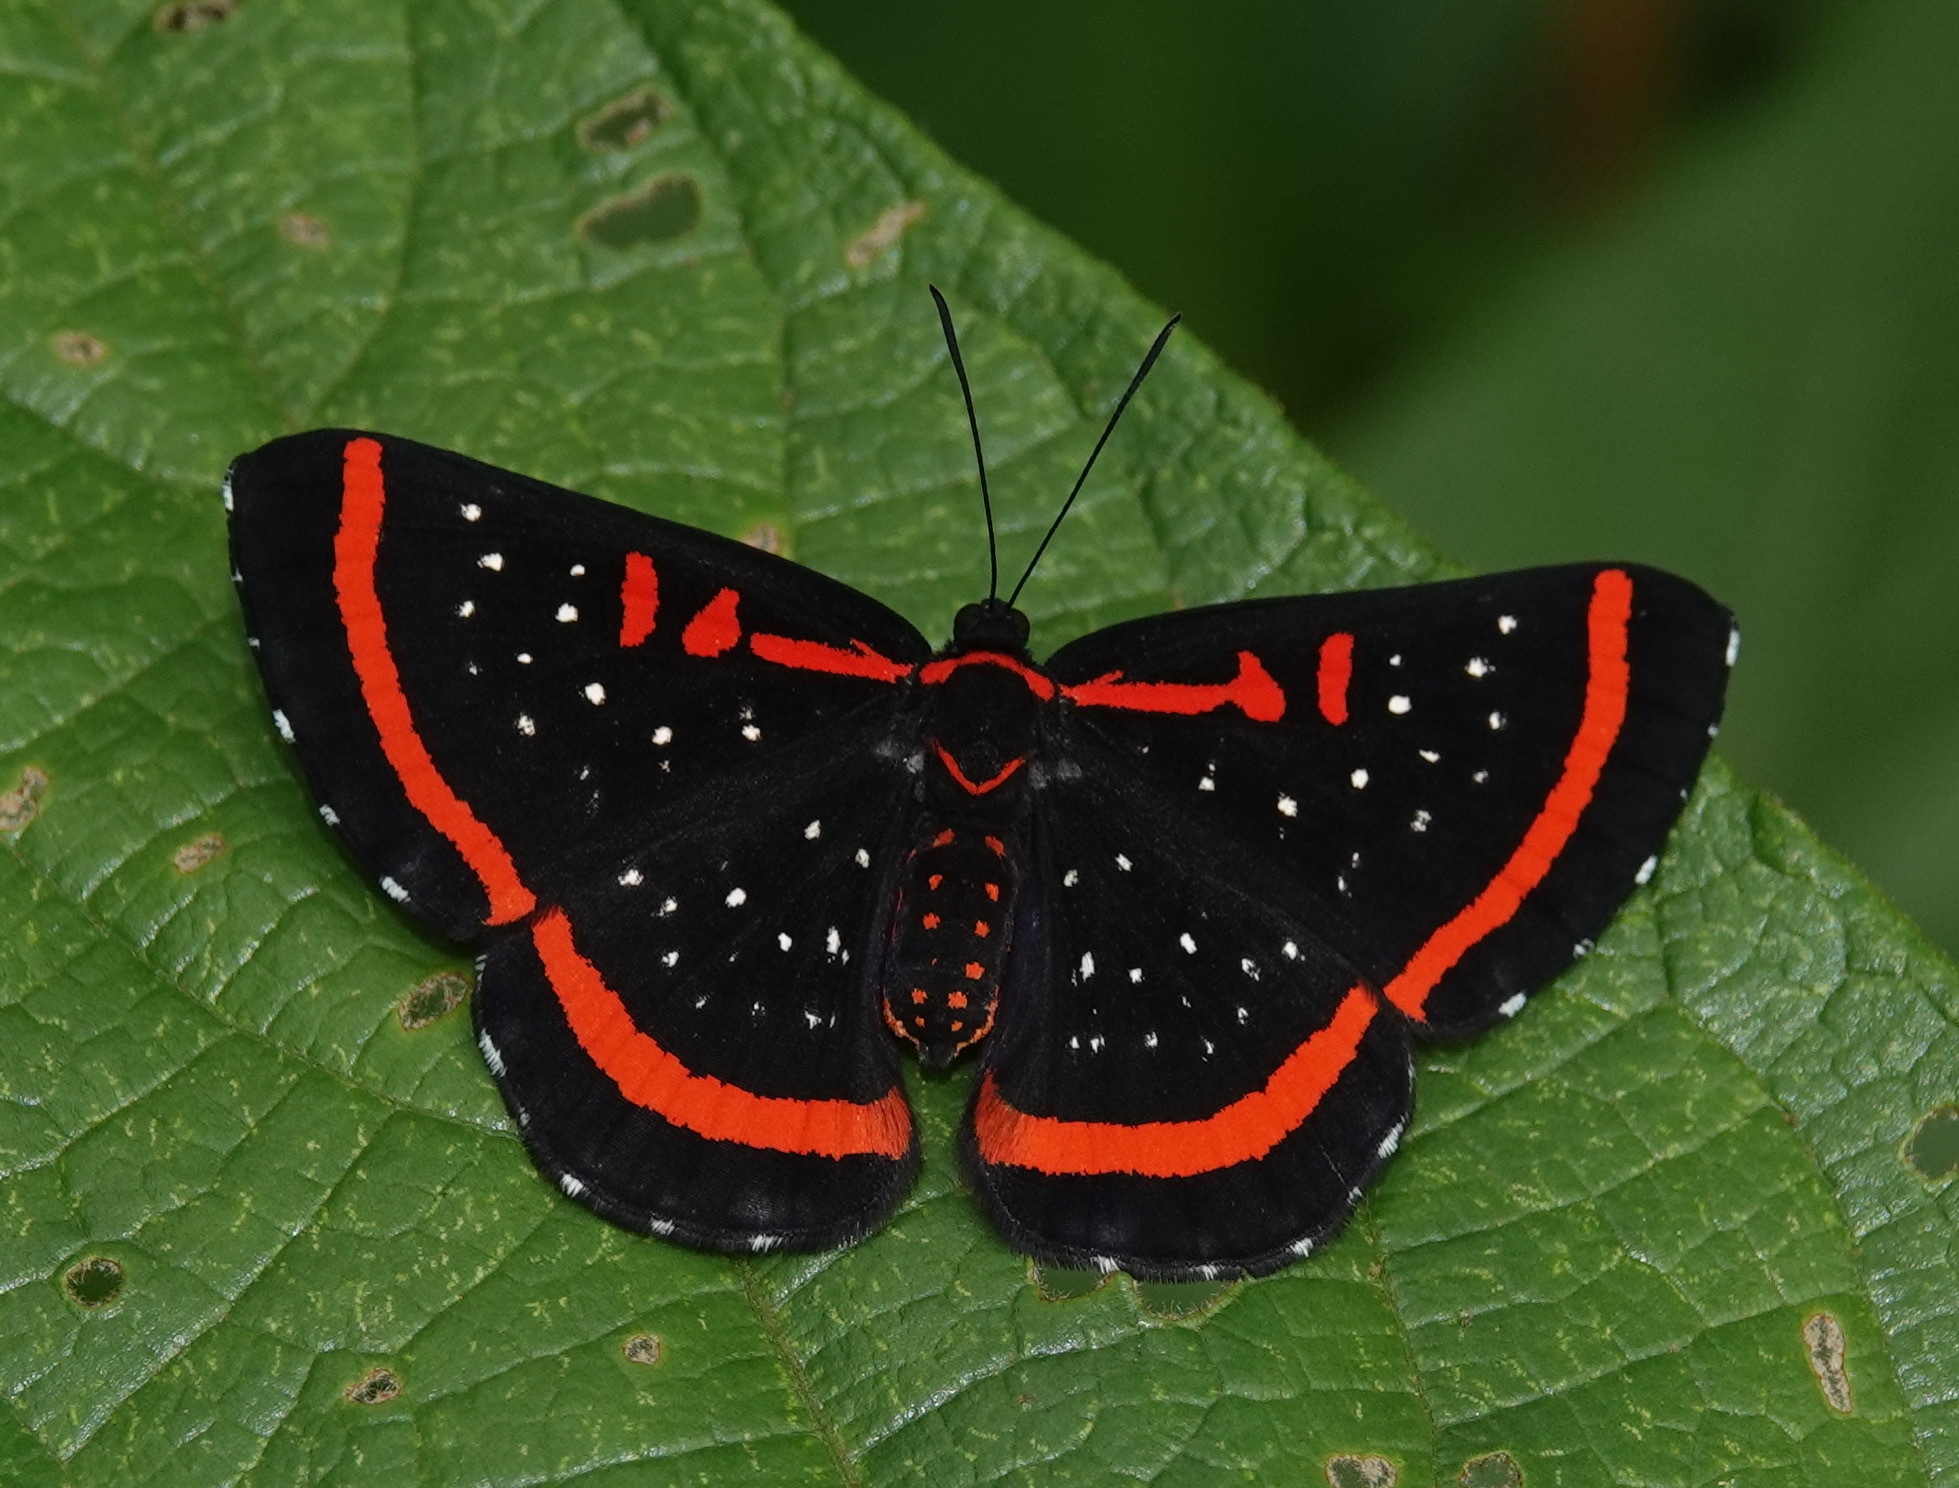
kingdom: Animalia
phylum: Arthropoda
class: Insecta
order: Lepidoptera
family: Riodinidae
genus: Amarynthis
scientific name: Amarynthis meneria
